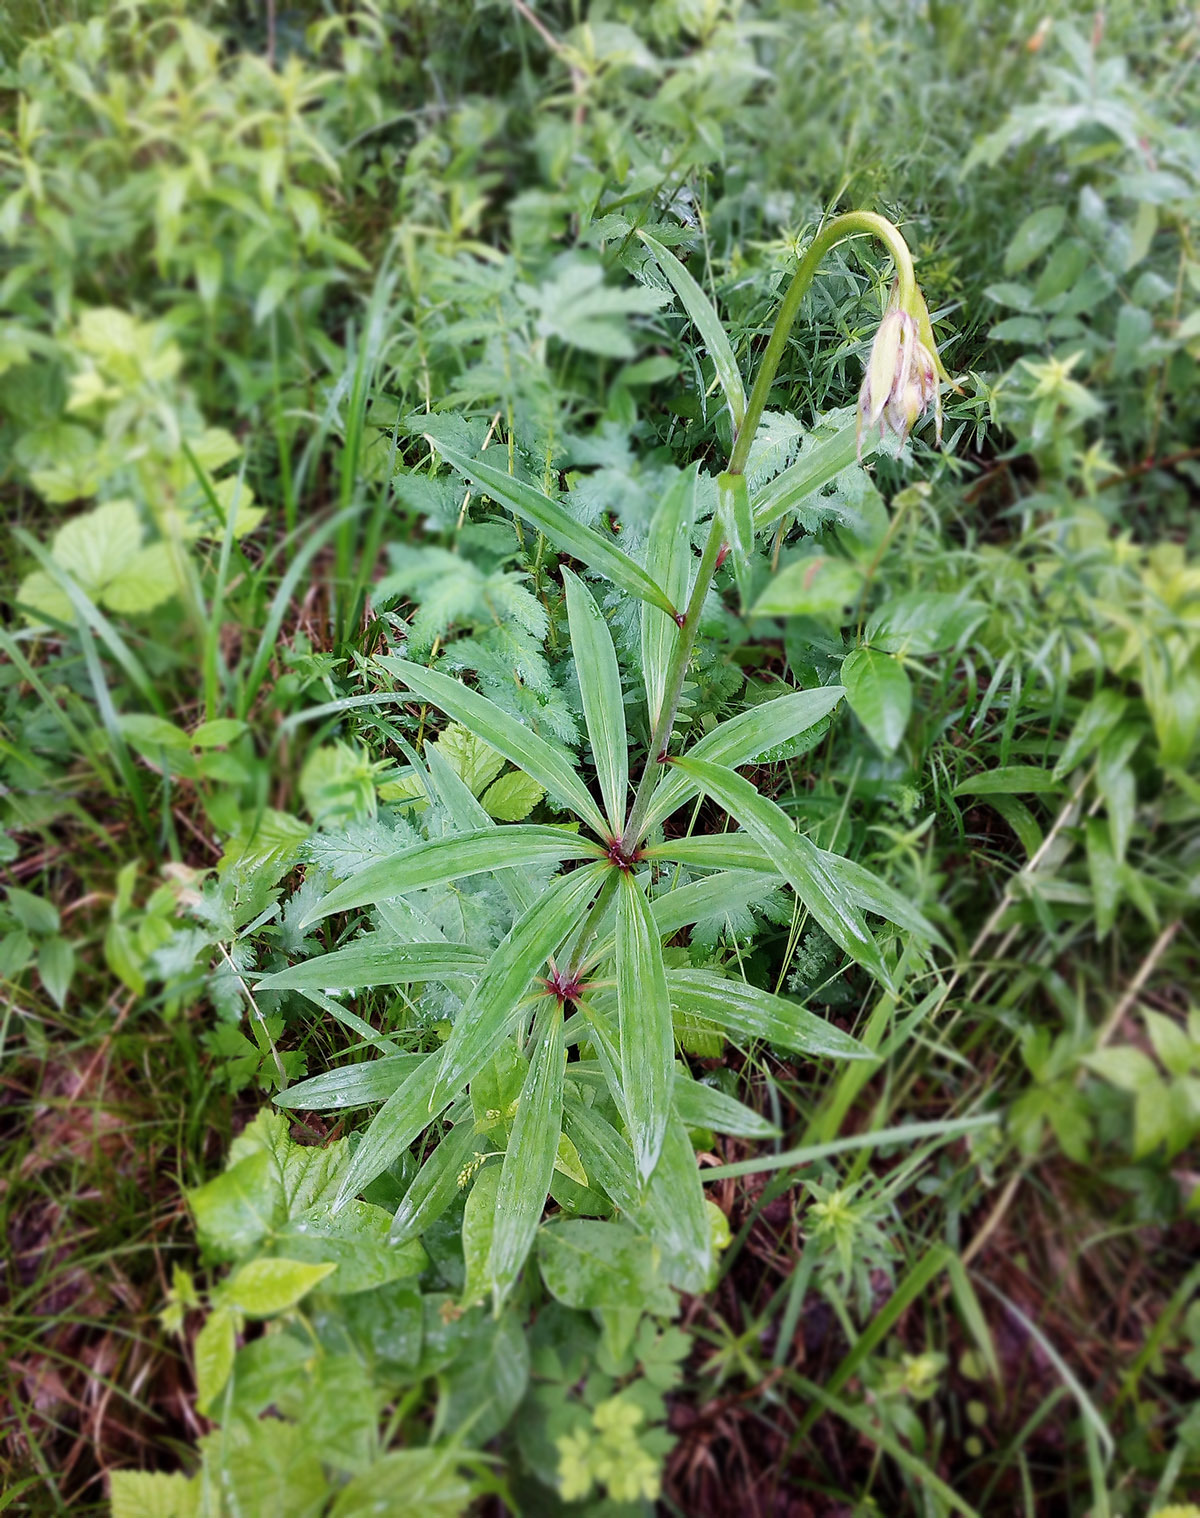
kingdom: Plantae
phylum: Tracheophyta
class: Liliopsida
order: Liliales
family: Liliaceae
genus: Lilium
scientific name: Lilium martagon
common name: Martagon lily
